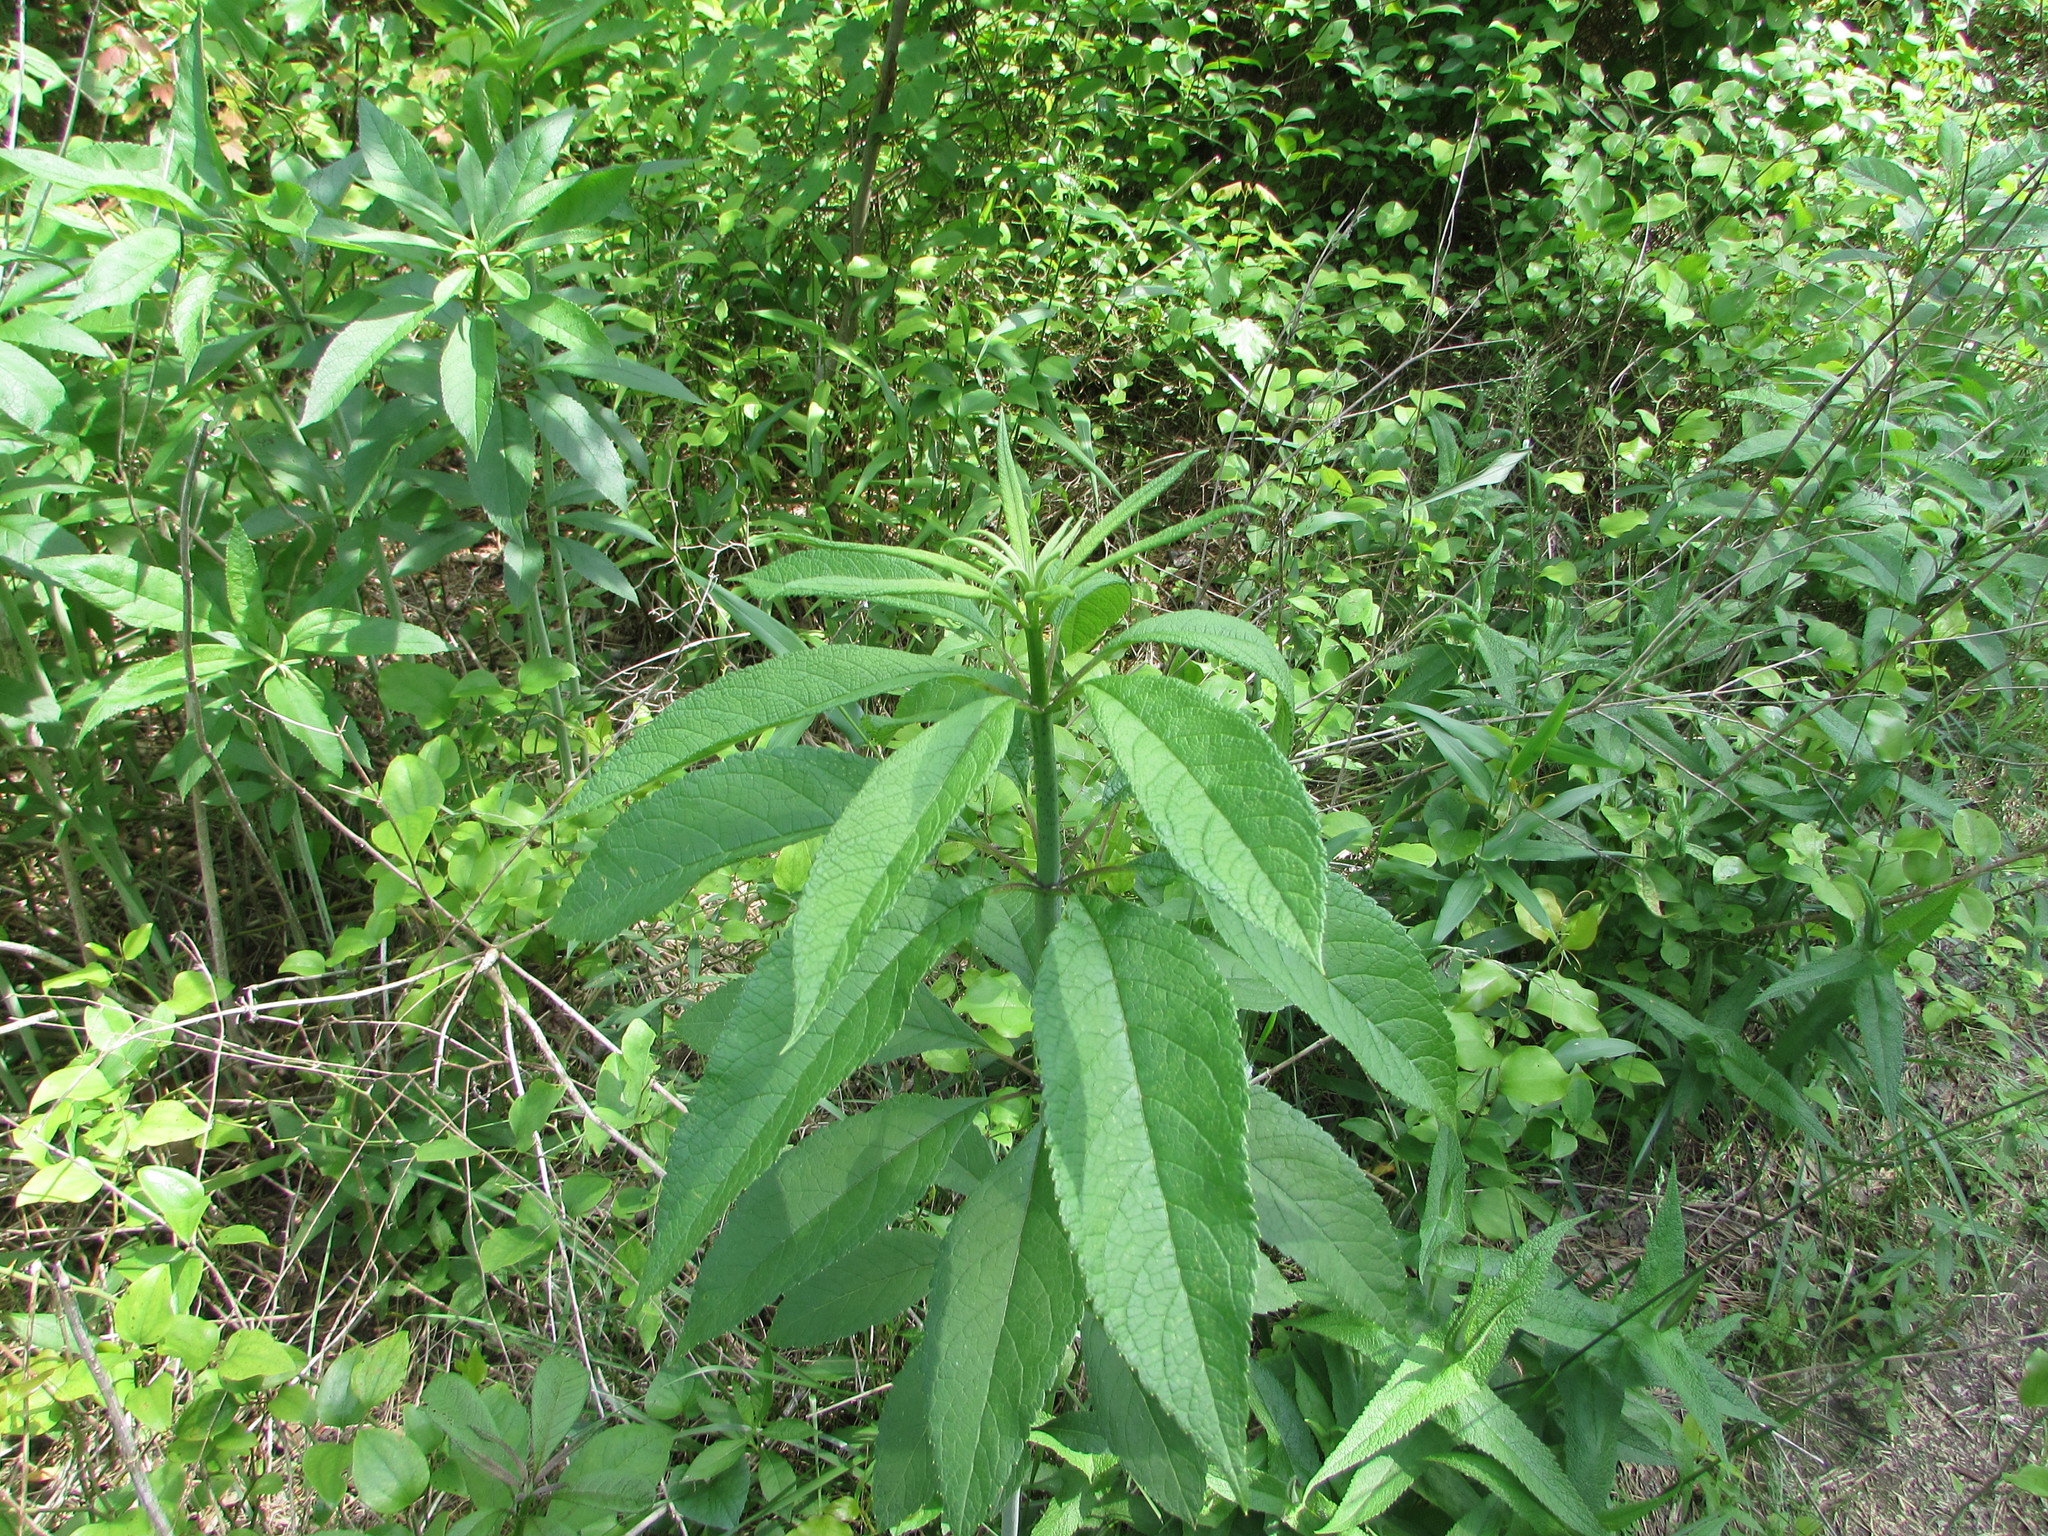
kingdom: Plantae
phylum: Tracheophyta
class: Magnoliopsida
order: Asterales
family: Asteraceae
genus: Eutrochium
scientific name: Eutrochium fistulosum
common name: Trumpetweed
